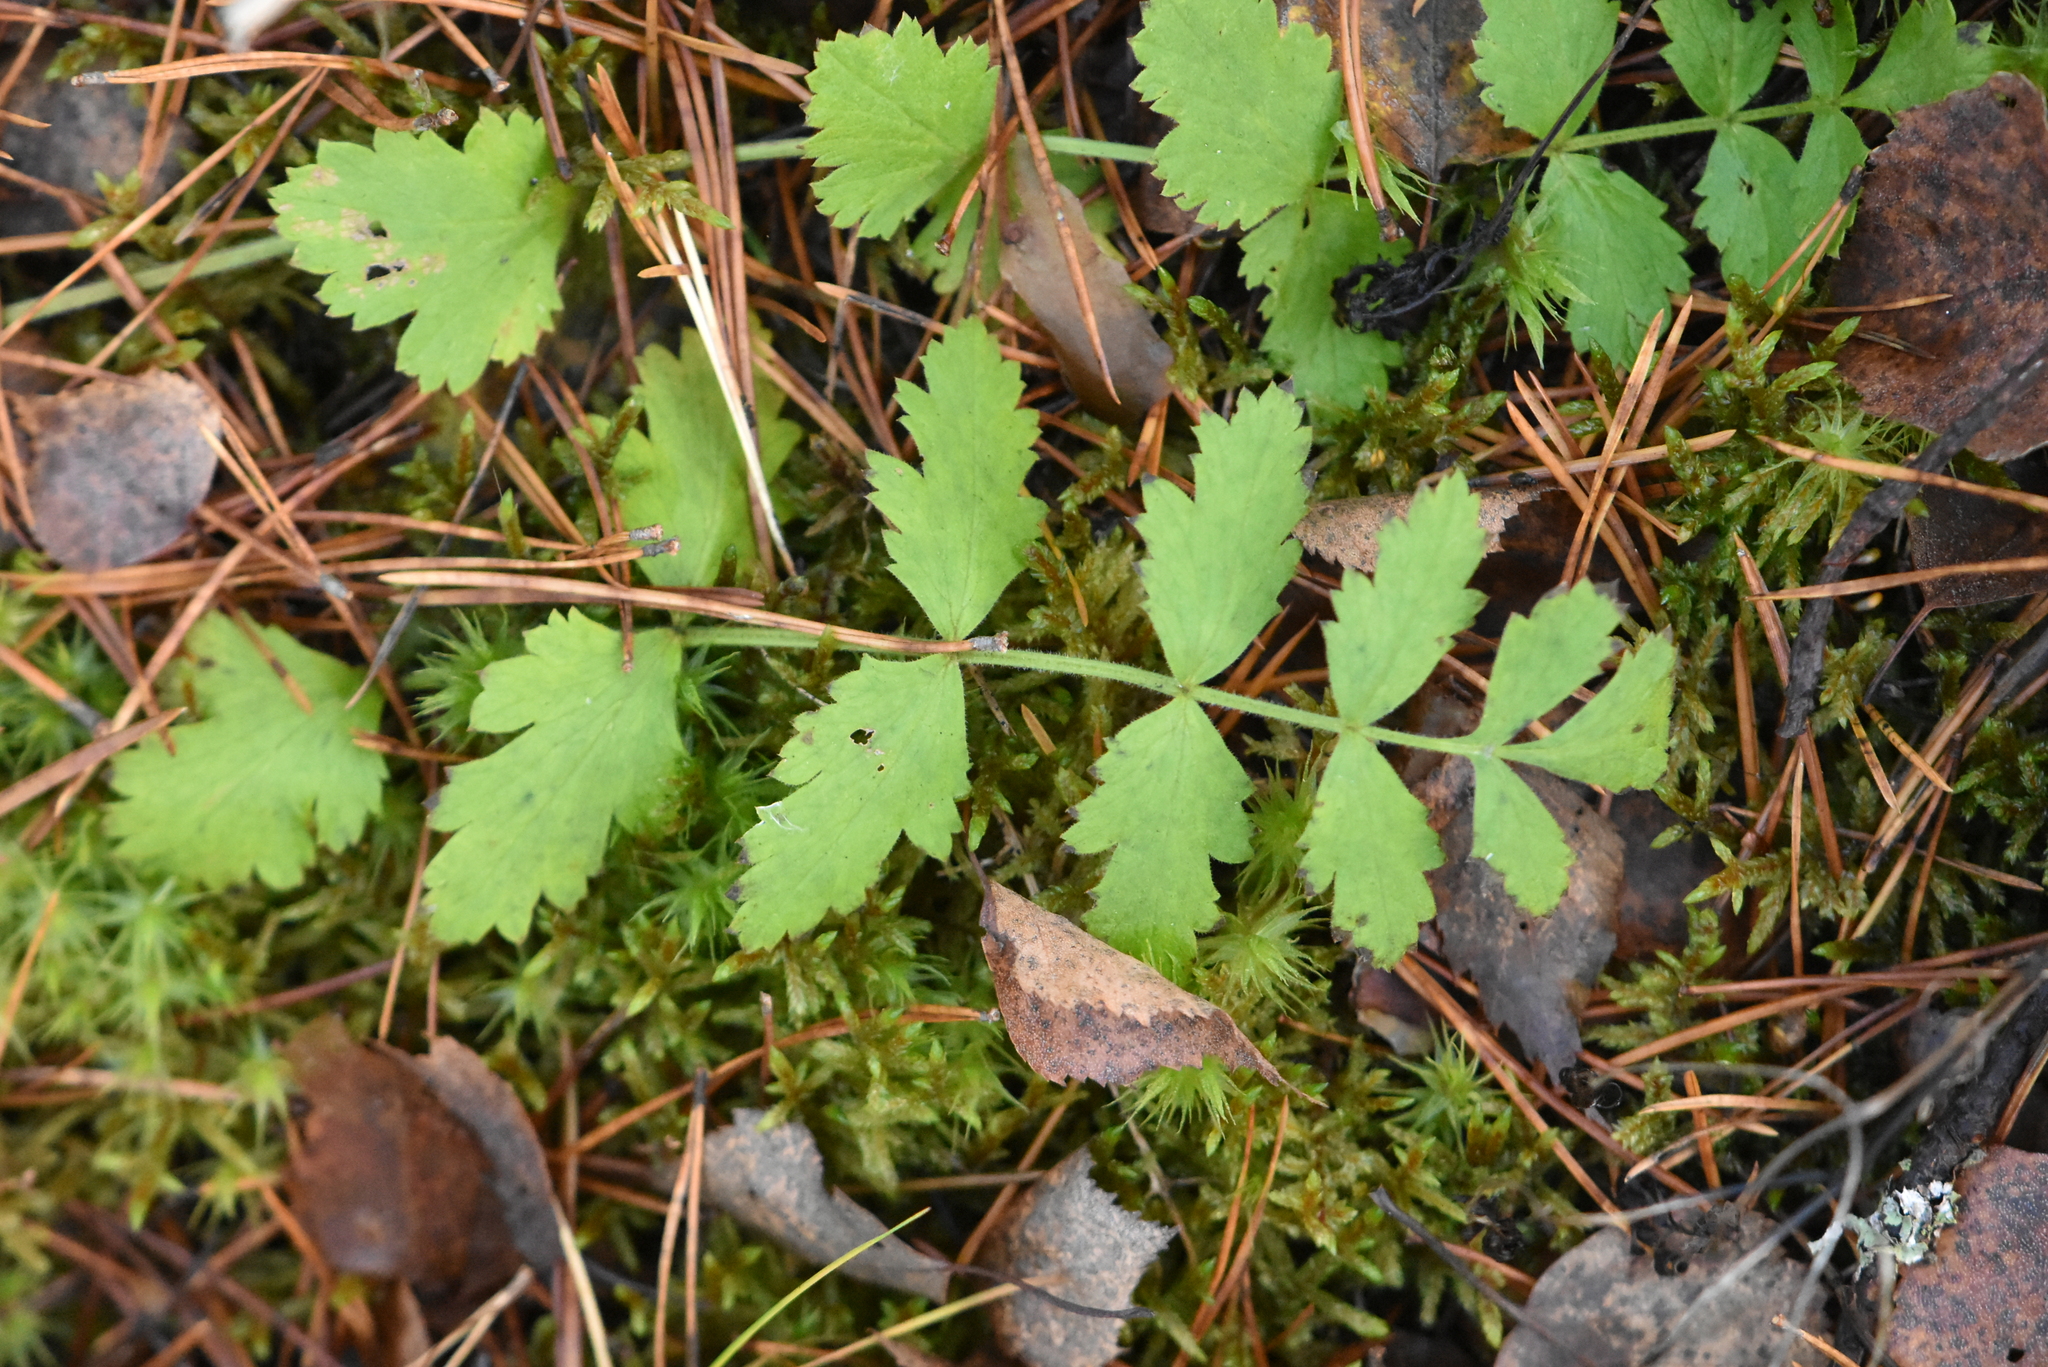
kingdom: Plantae
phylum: Tracheophyta
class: Magnoliopsida
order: Apiales
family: Apiaceae
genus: Pimpinella
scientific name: Pimpinella saxifraga
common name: Burnet-saxifrage
